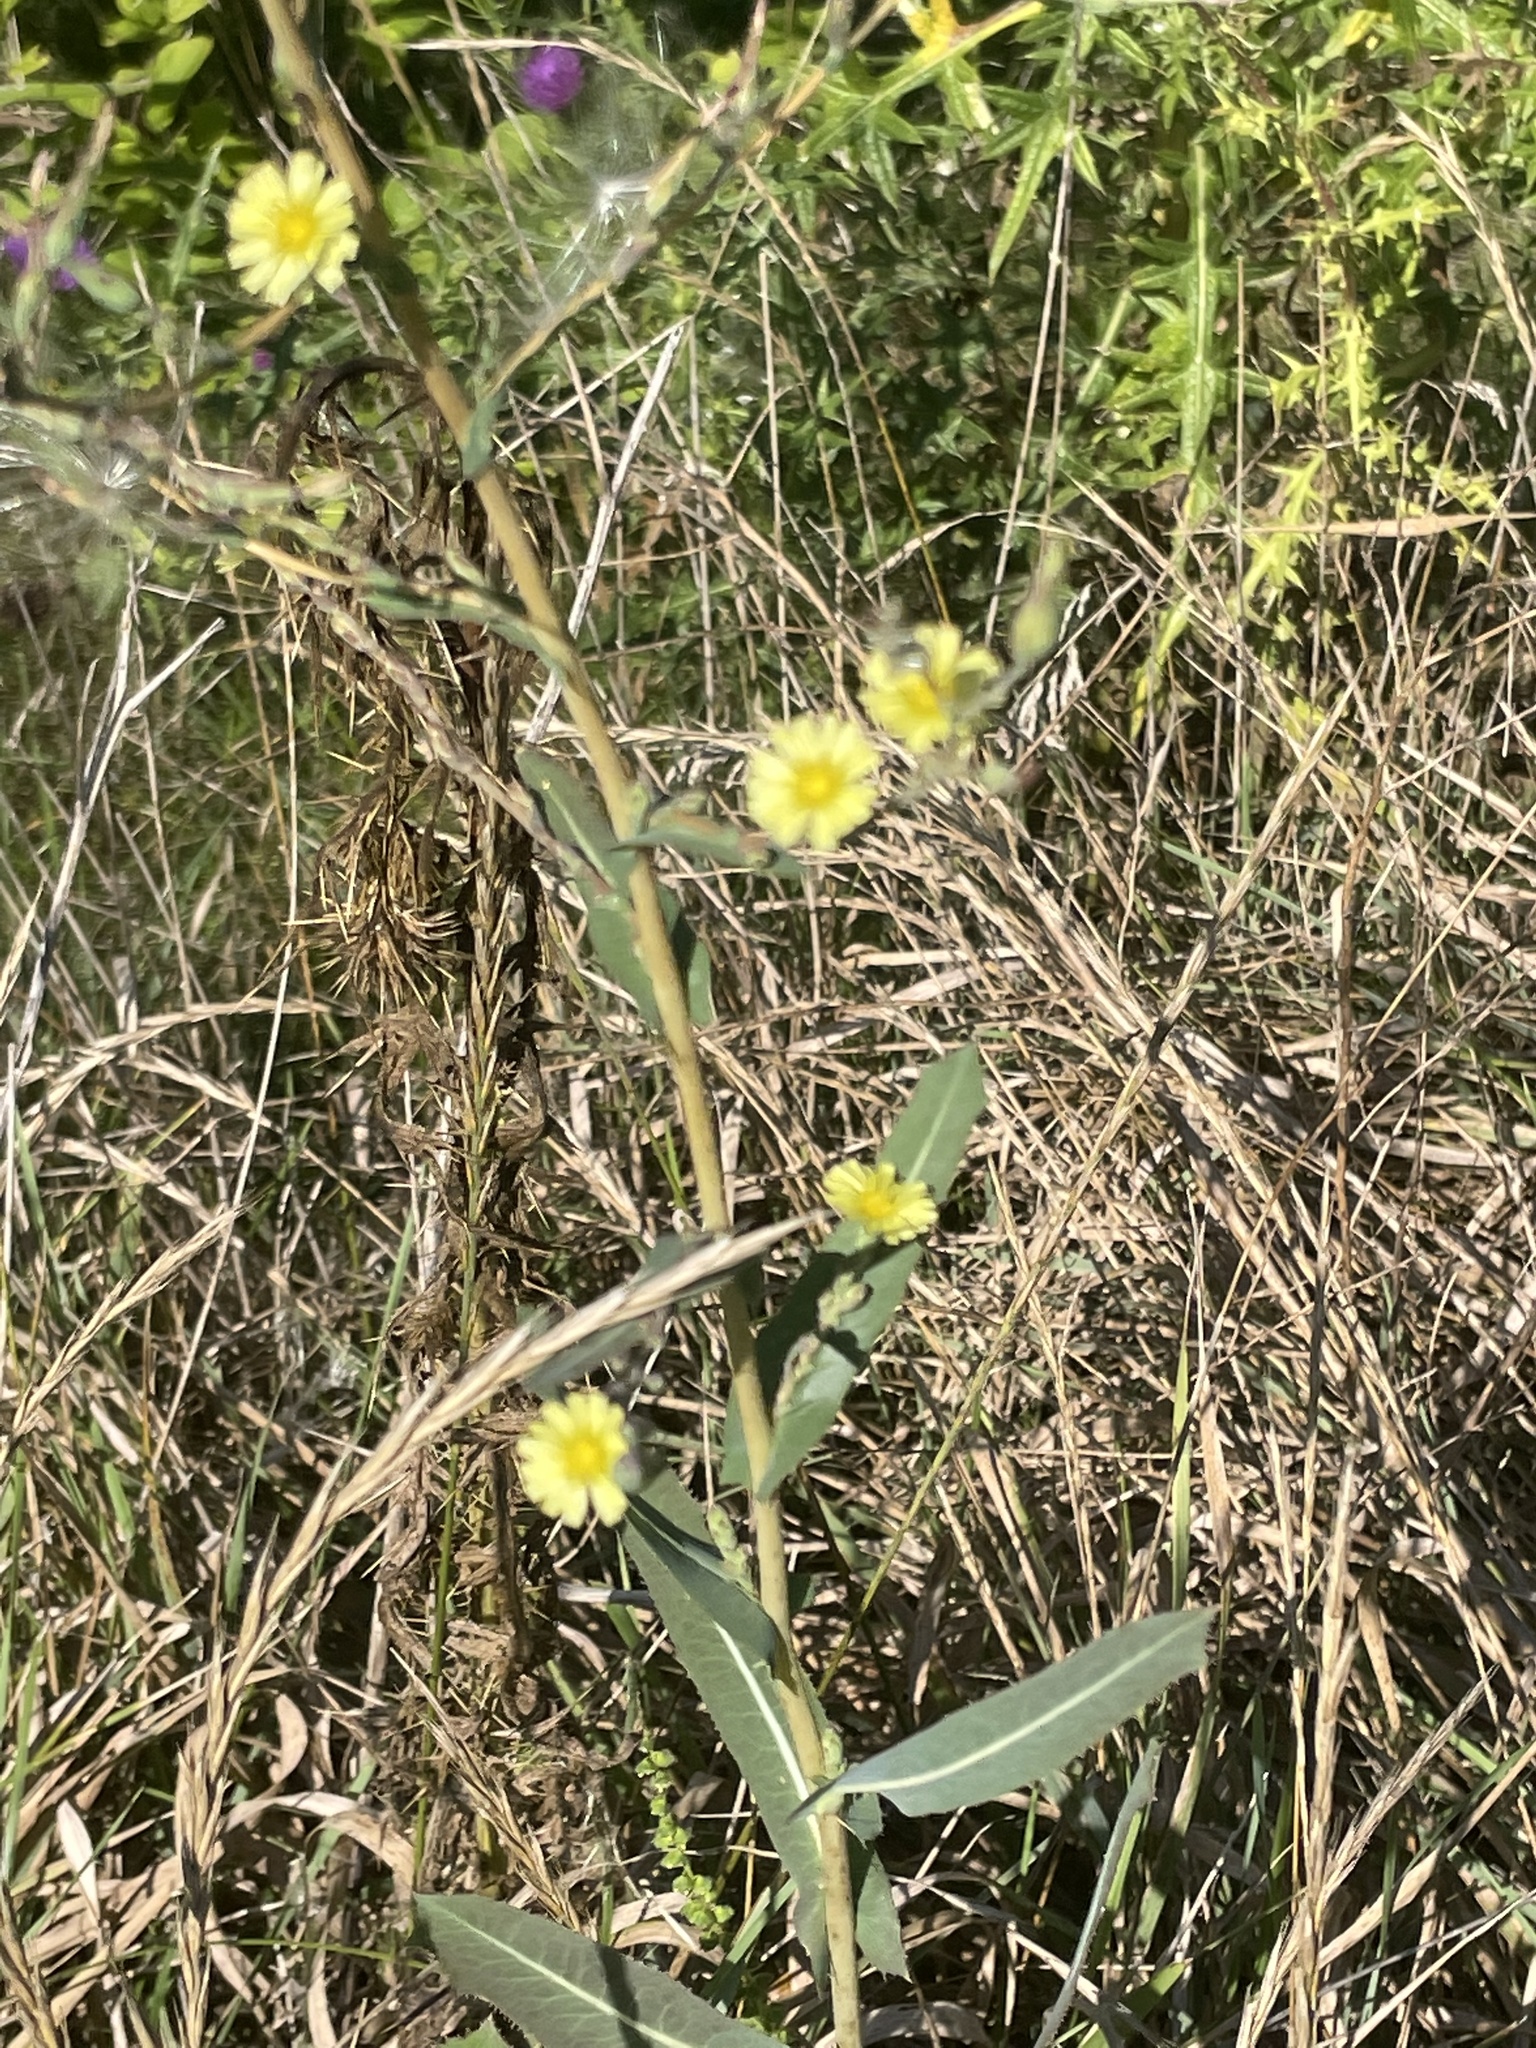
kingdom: Plantae
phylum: Tracheophyta
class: Magnoliopsida
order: Asterales
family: Asteraceae
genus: Lactuca
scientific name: Lactuca serriola
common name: Prickly lettuce
